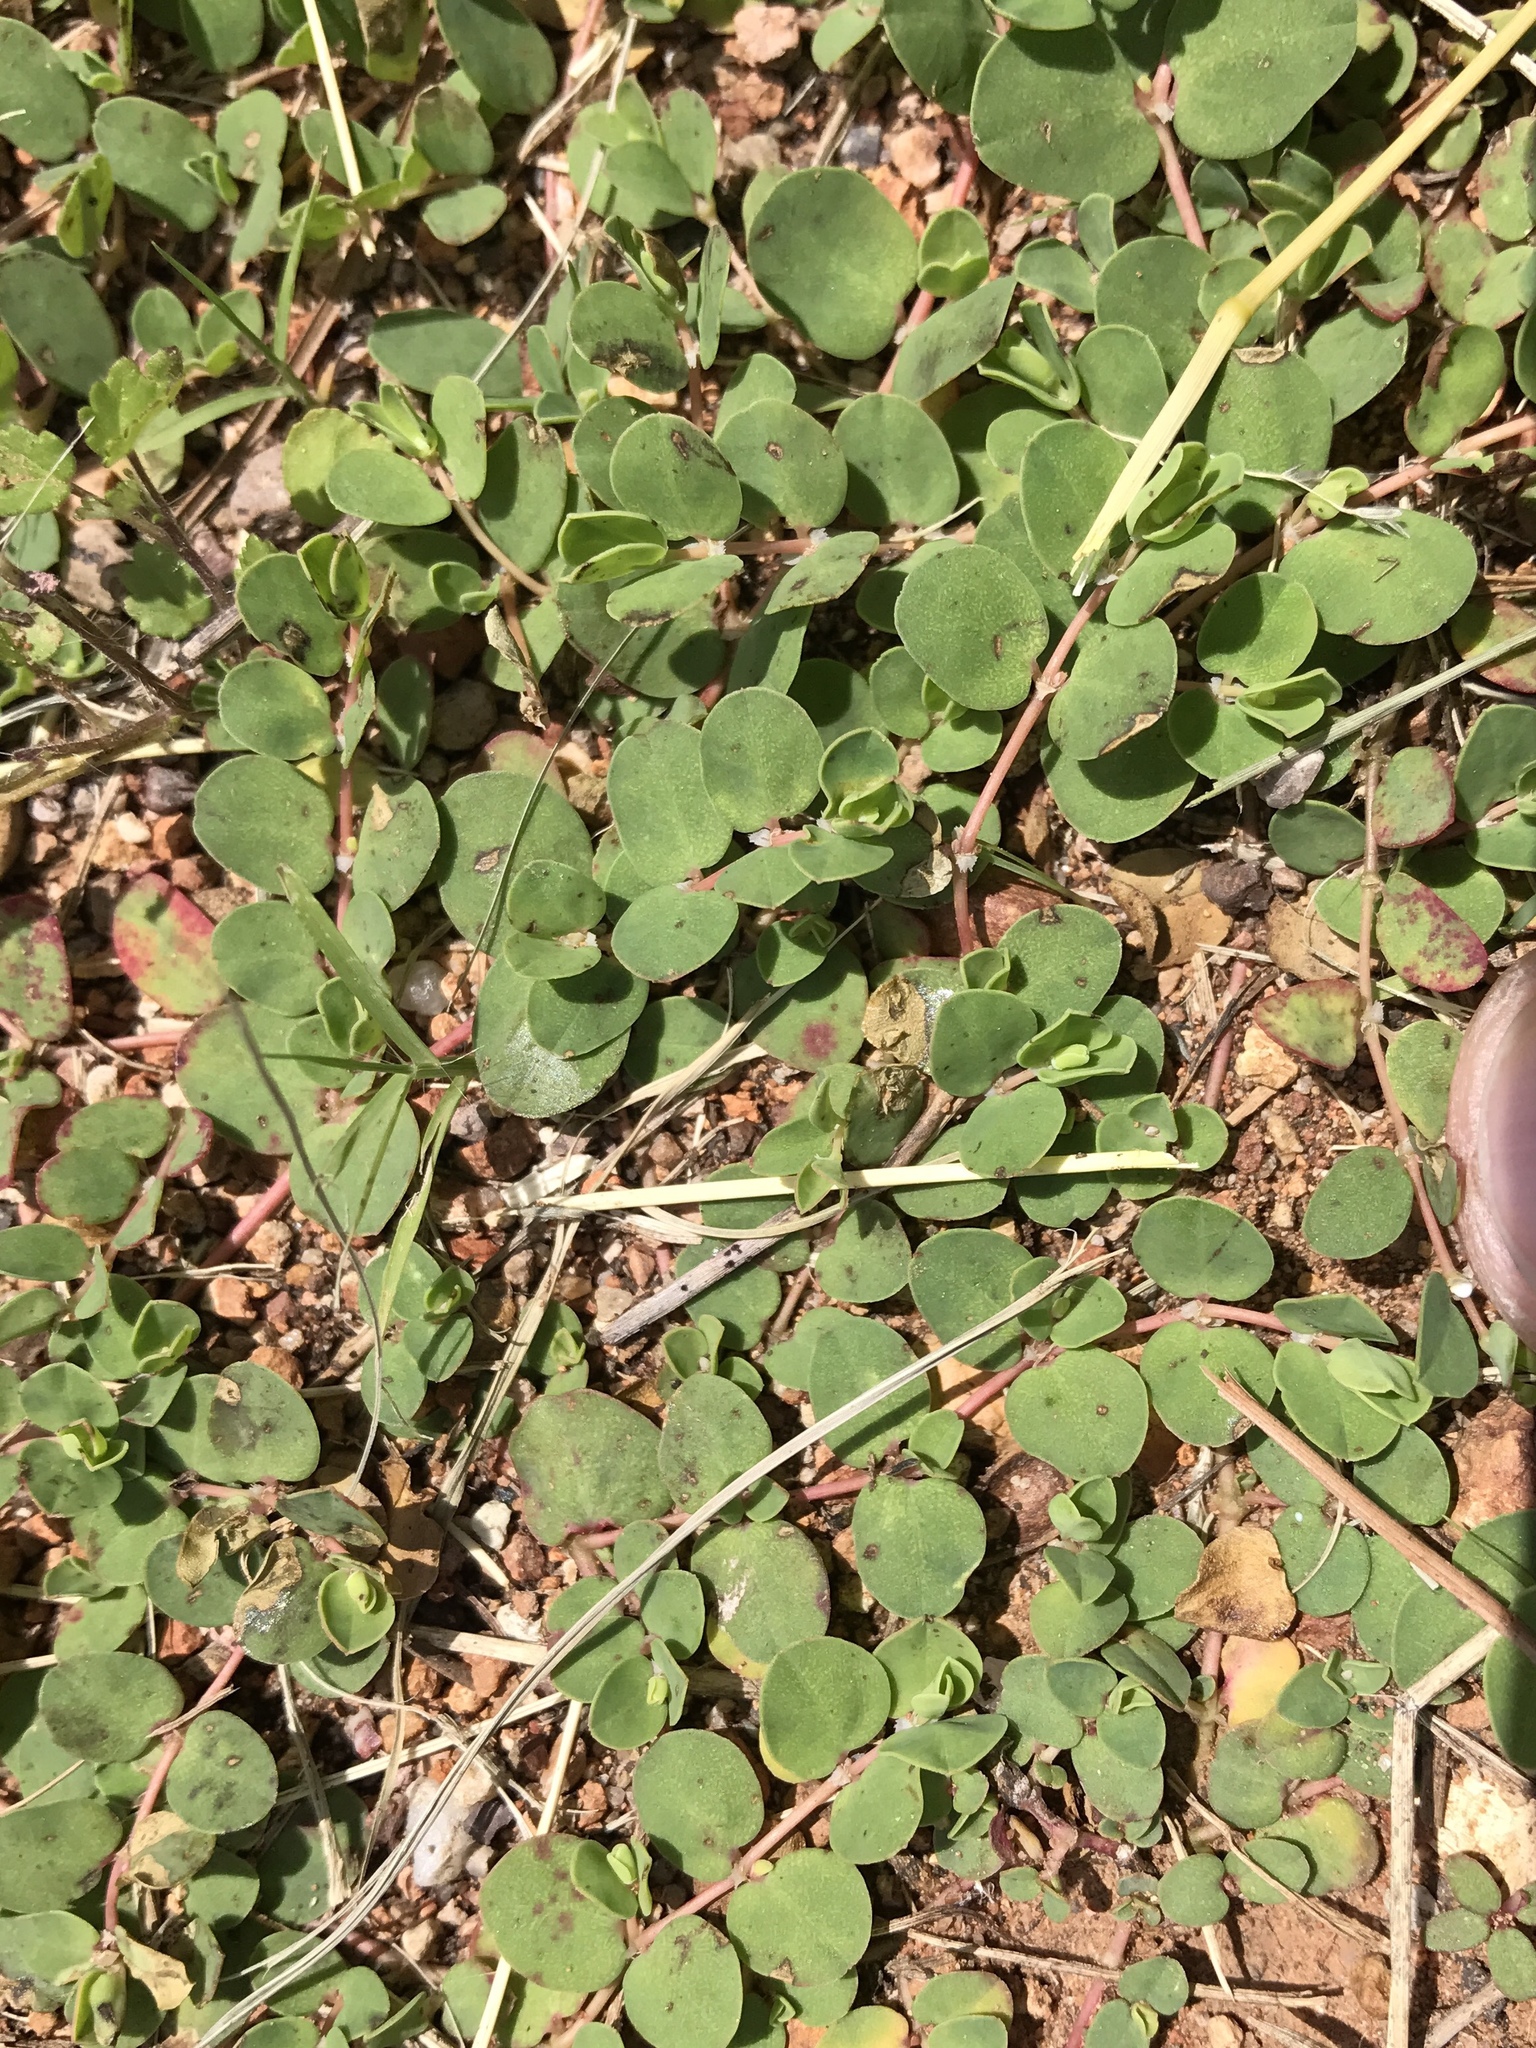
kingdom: Plantae
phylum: Tracheophyta
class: Magnoliopsida
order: Malpighiales
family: Euphorbiaceae
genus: Euphorbia
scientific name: Euphorbia indivisa
